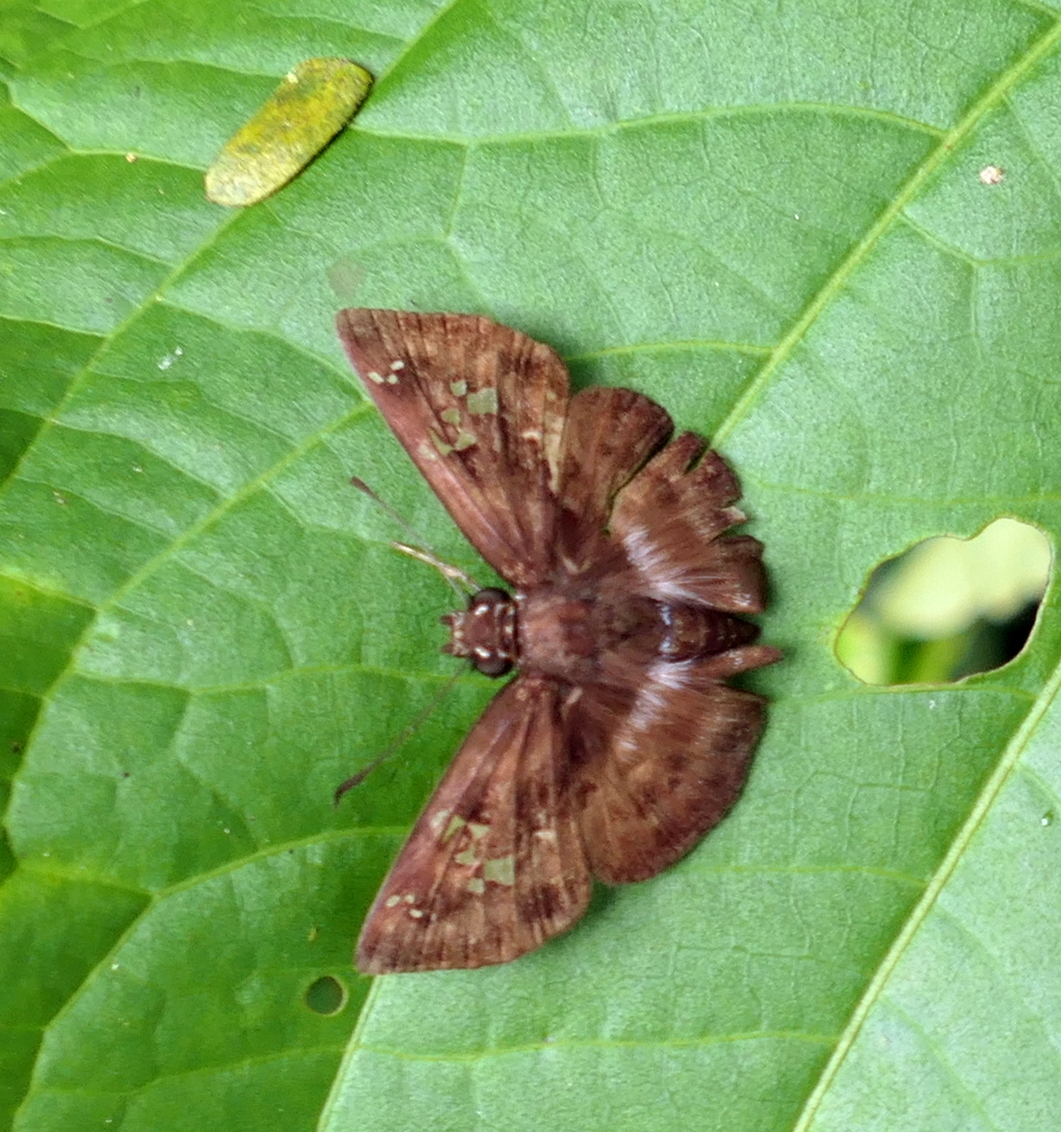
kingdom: Animalia
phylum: Arthropoda
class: Insecta
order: Lepidoptera
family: Hesperiidae
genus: Quadrus
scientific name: Quadrus cerialis
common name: Common blue-skipper
